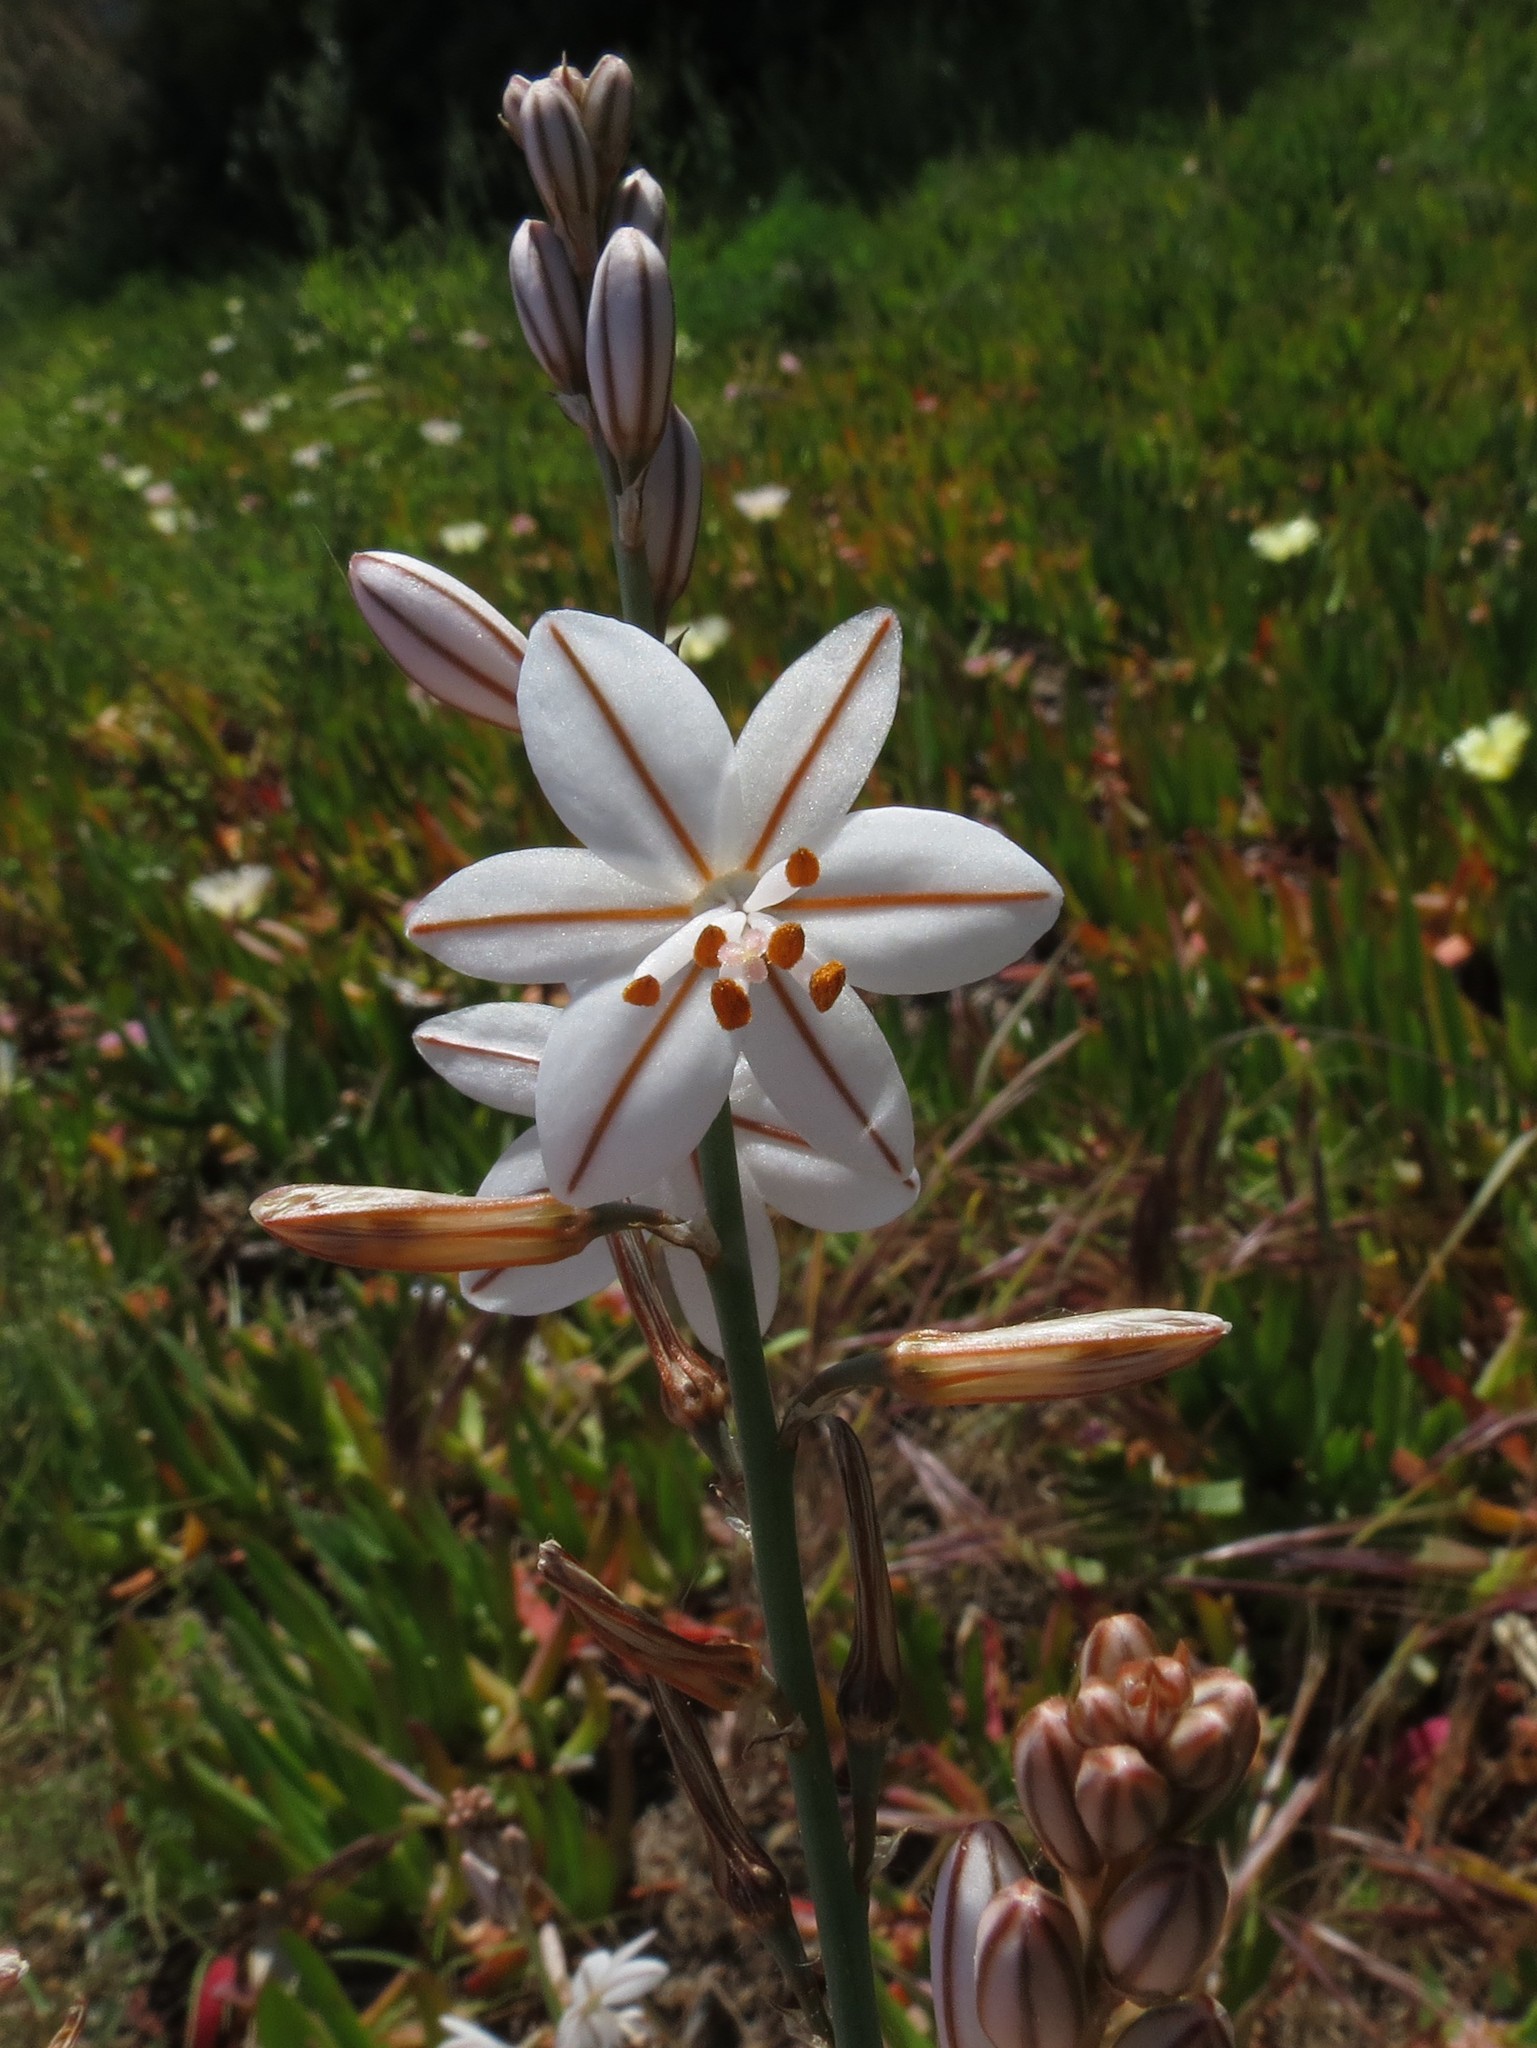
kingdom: Plantae
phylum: Tracheophyta
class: Liliopsida
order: Asparagales
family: Asphodelaceae
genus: Asphodelus
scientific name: Asphodelus fistulosus
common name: Onionweed
